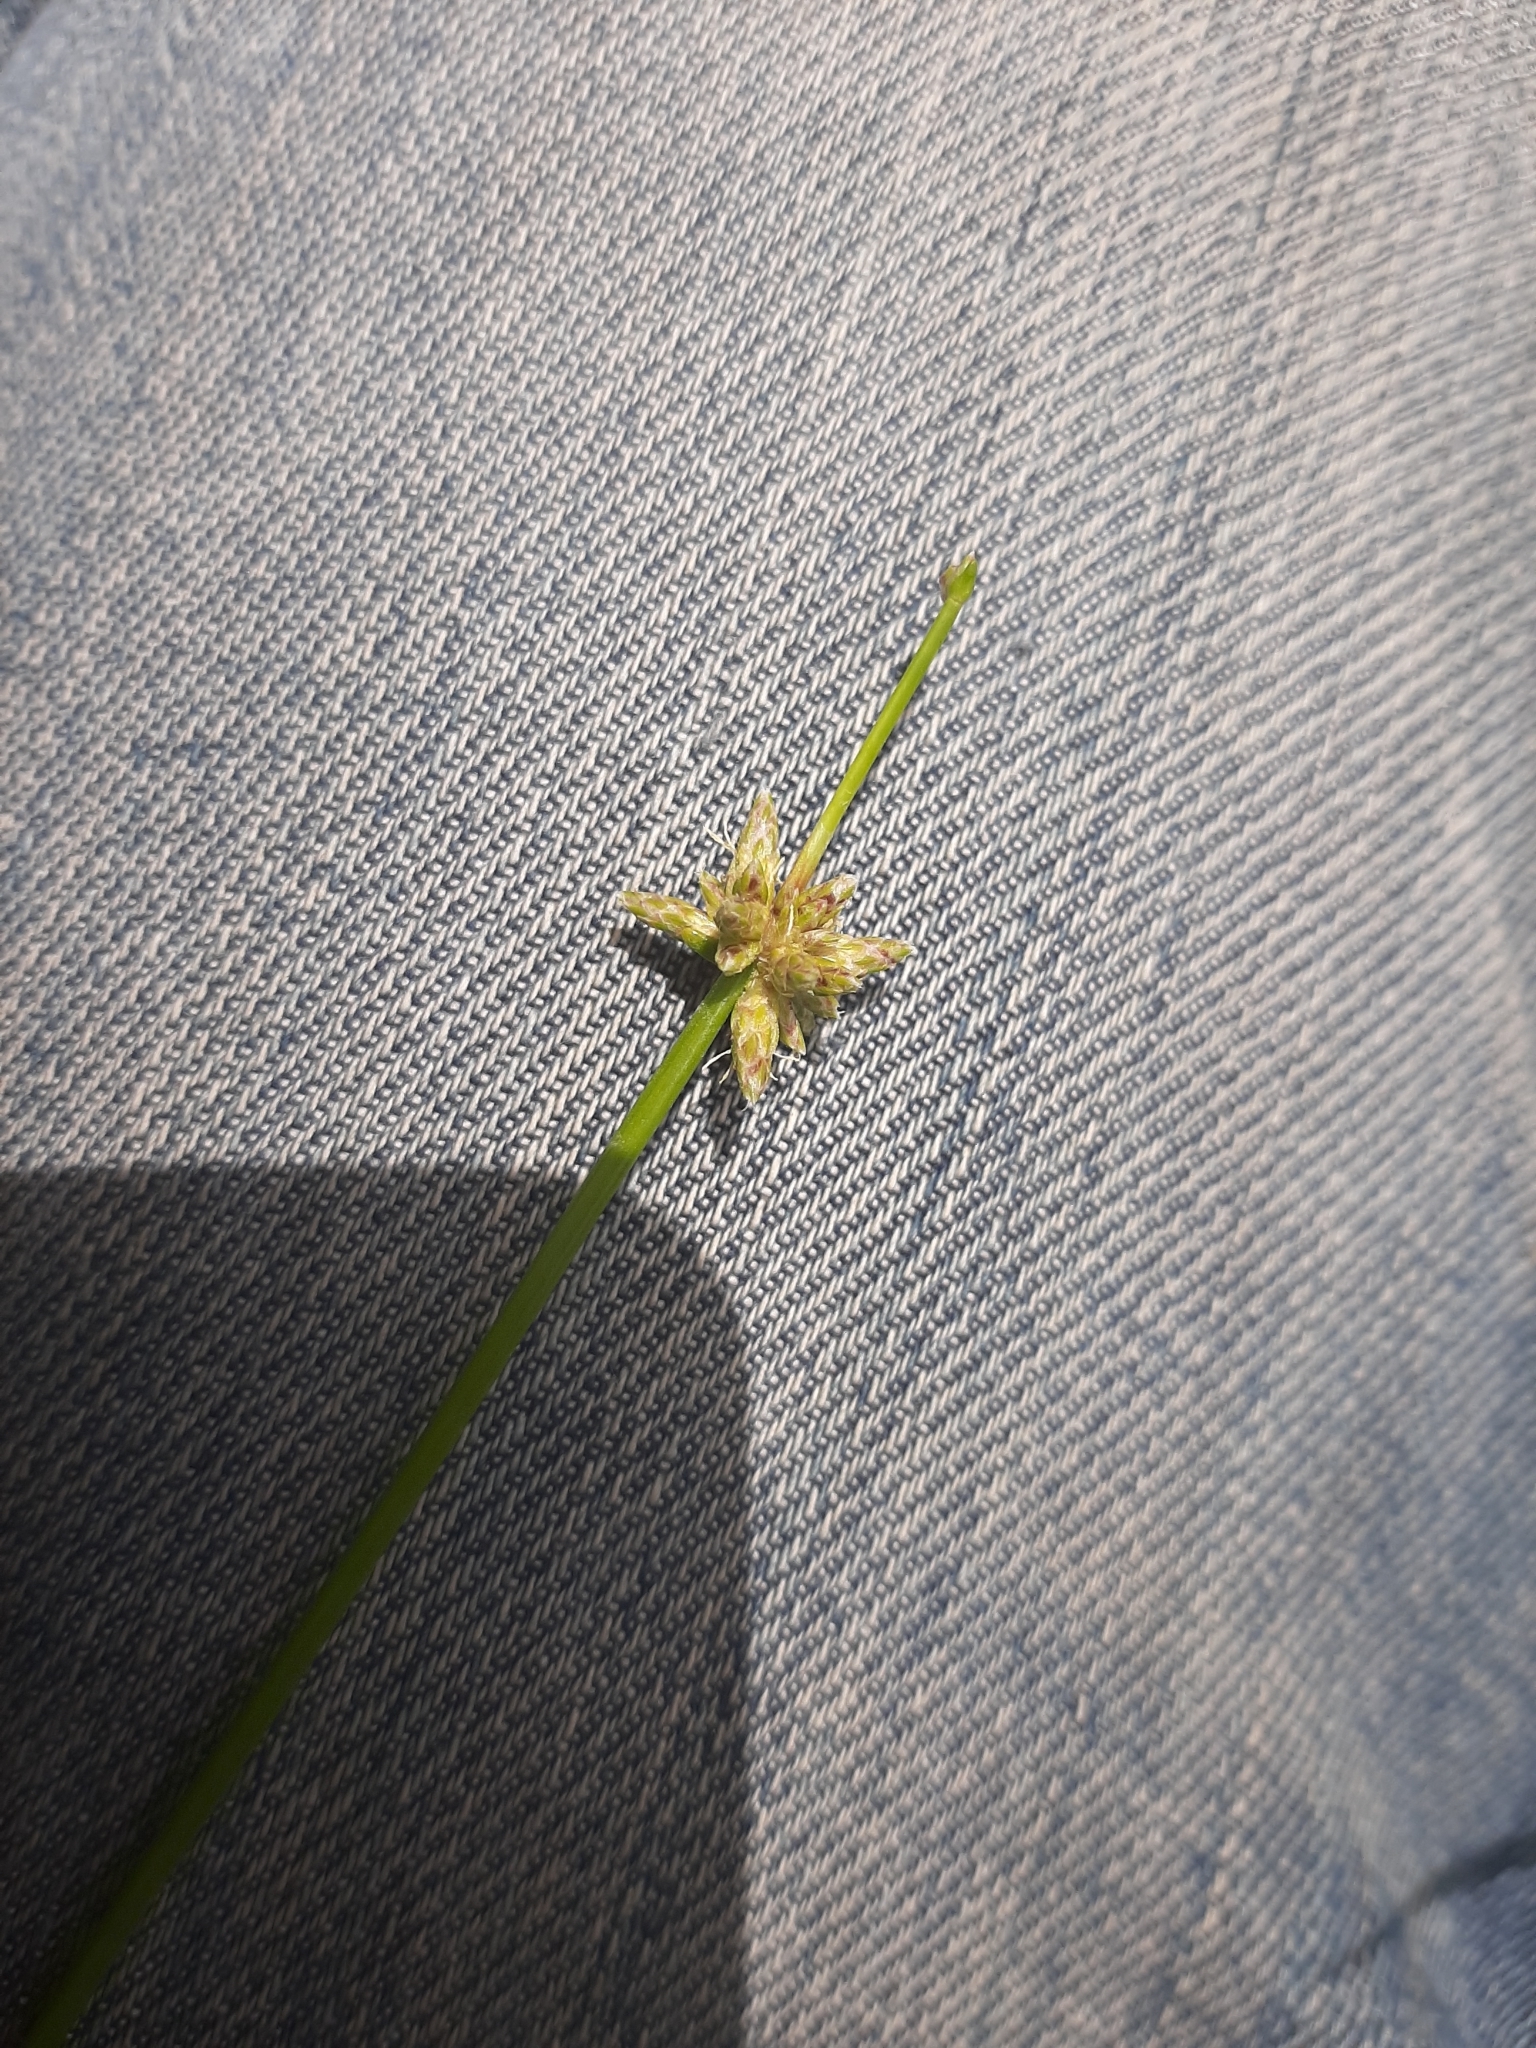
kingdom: Plantae
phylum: Tracheophyta
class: Liliopsida
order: Poales
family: Cyperaceae
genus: Isolepis
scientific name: Isolepis prolifera
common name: Proliferating bulrush
